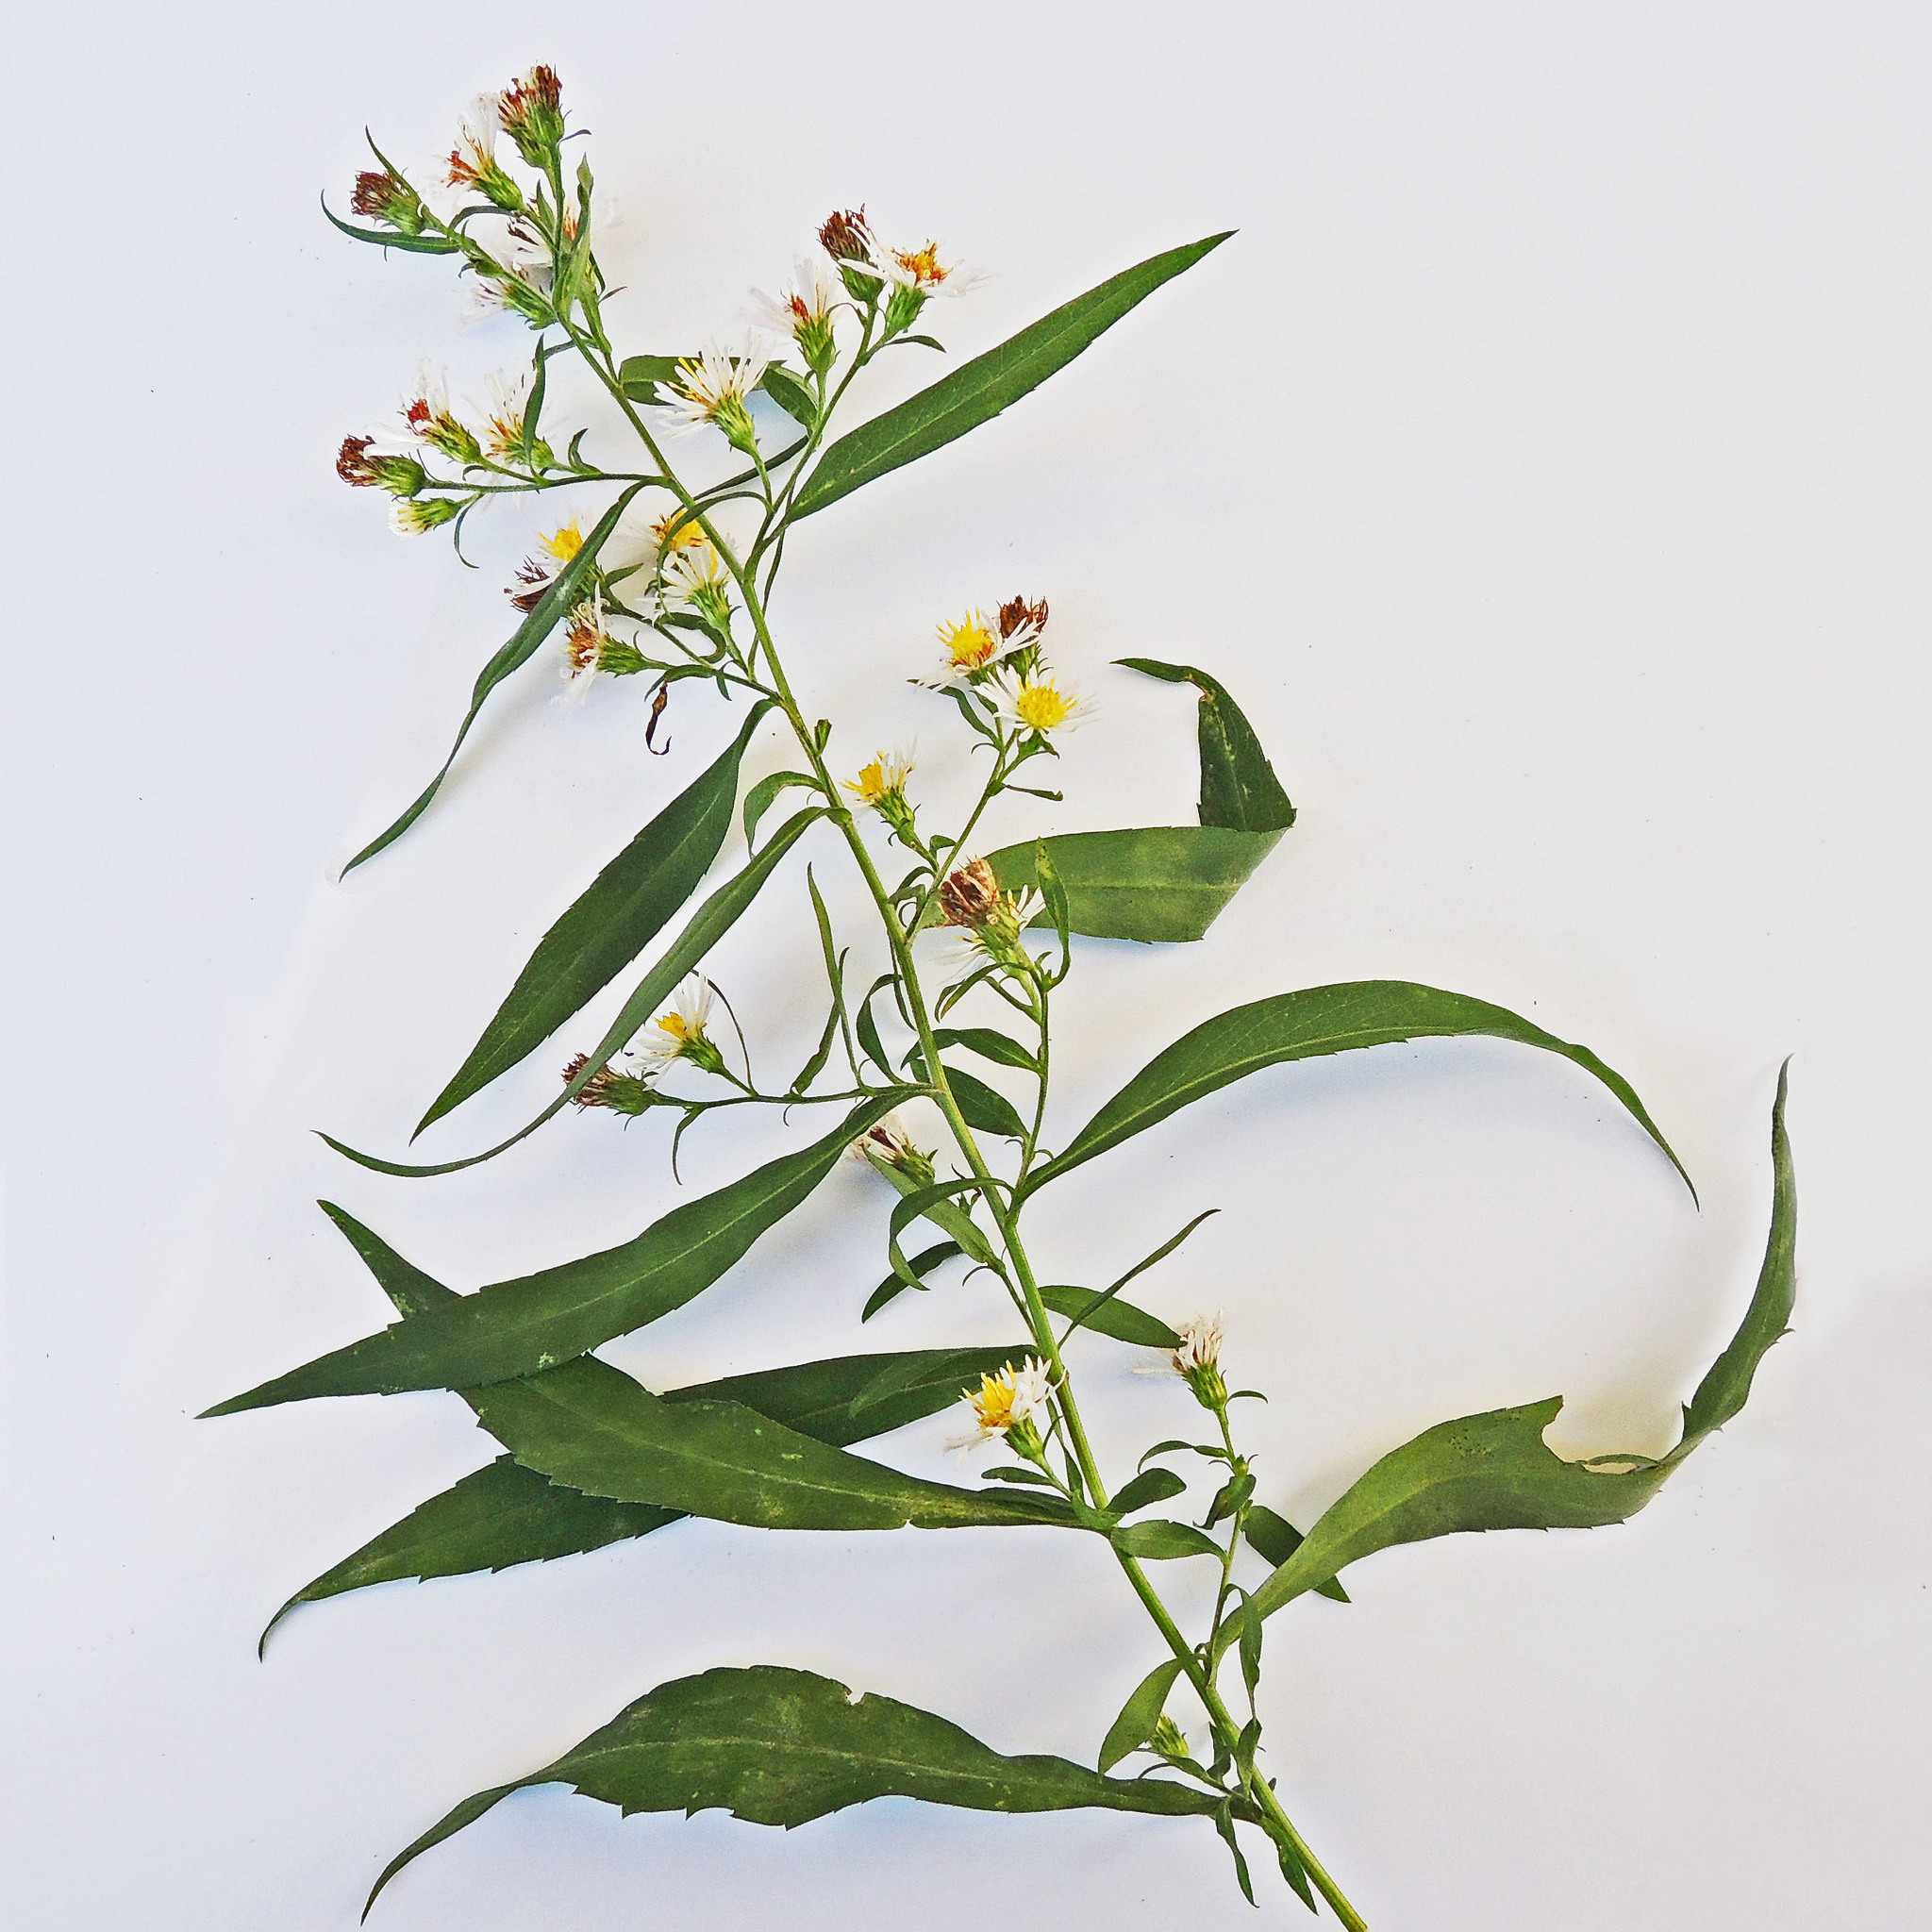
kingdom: Plantae
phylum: Tracheophyta
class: Magnoliopsida
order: Asterales
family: Asteraceae
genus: Symphyotrichum
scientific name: Symphyotrichum lanceolatum
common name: Panicled aster
